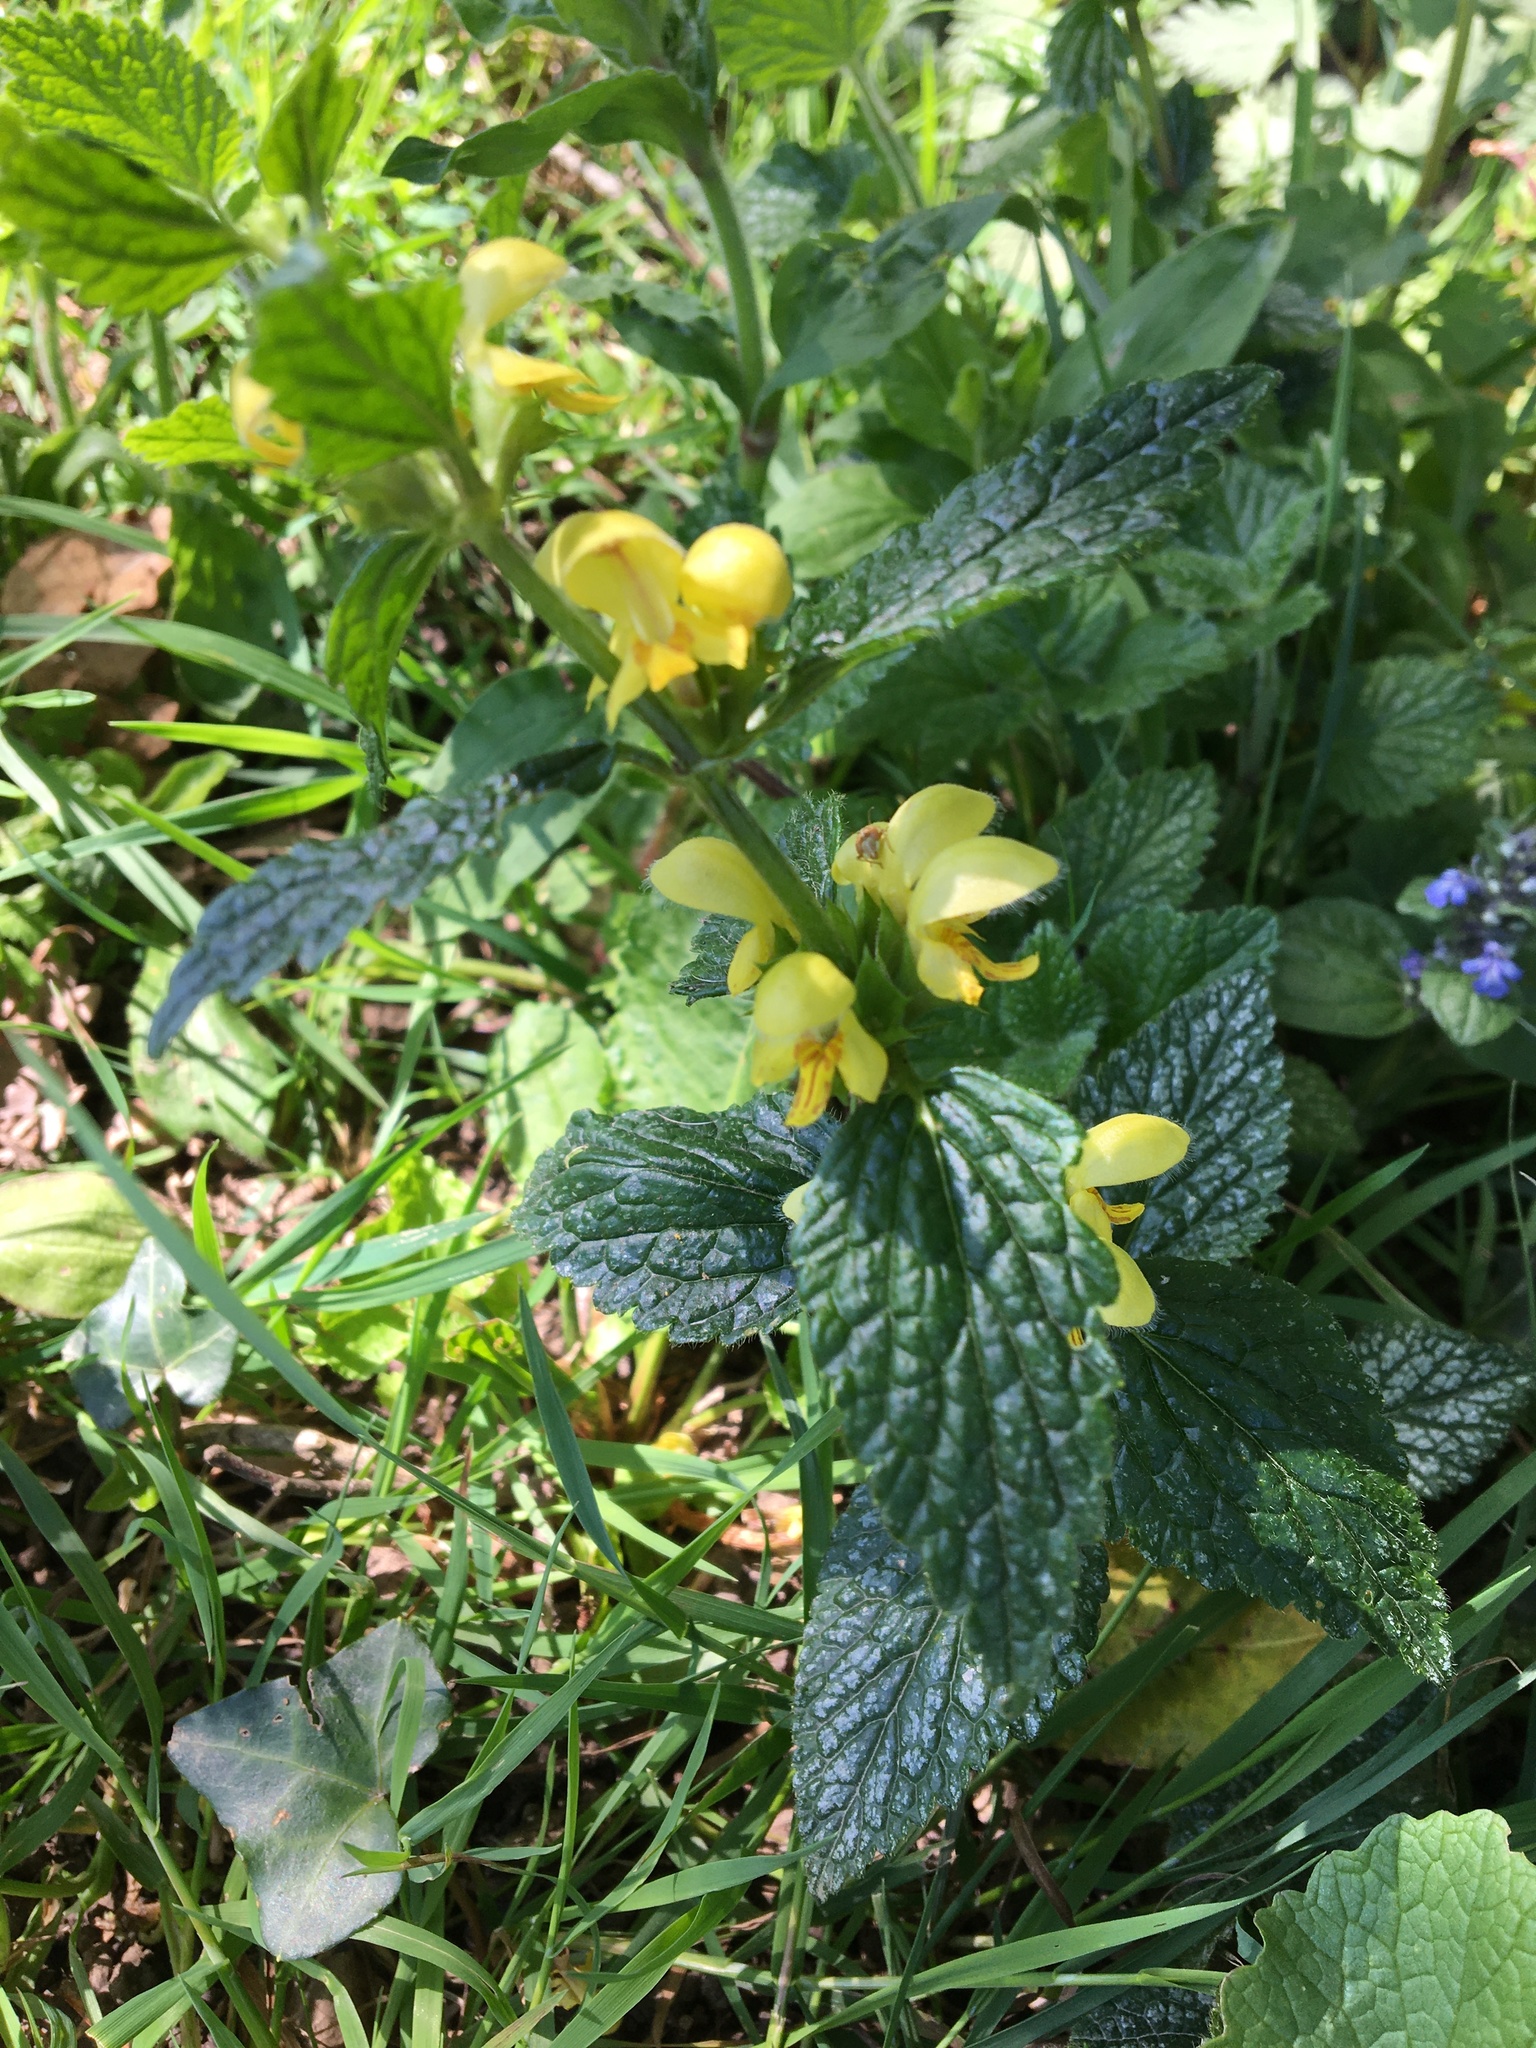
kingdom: Plantae
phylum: Tracheophyta
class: Magnoliopsida
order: Lamiales
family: Lamiaceae
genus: Lamium
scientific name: Lamium galeobdolon
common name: Yellow archangel
